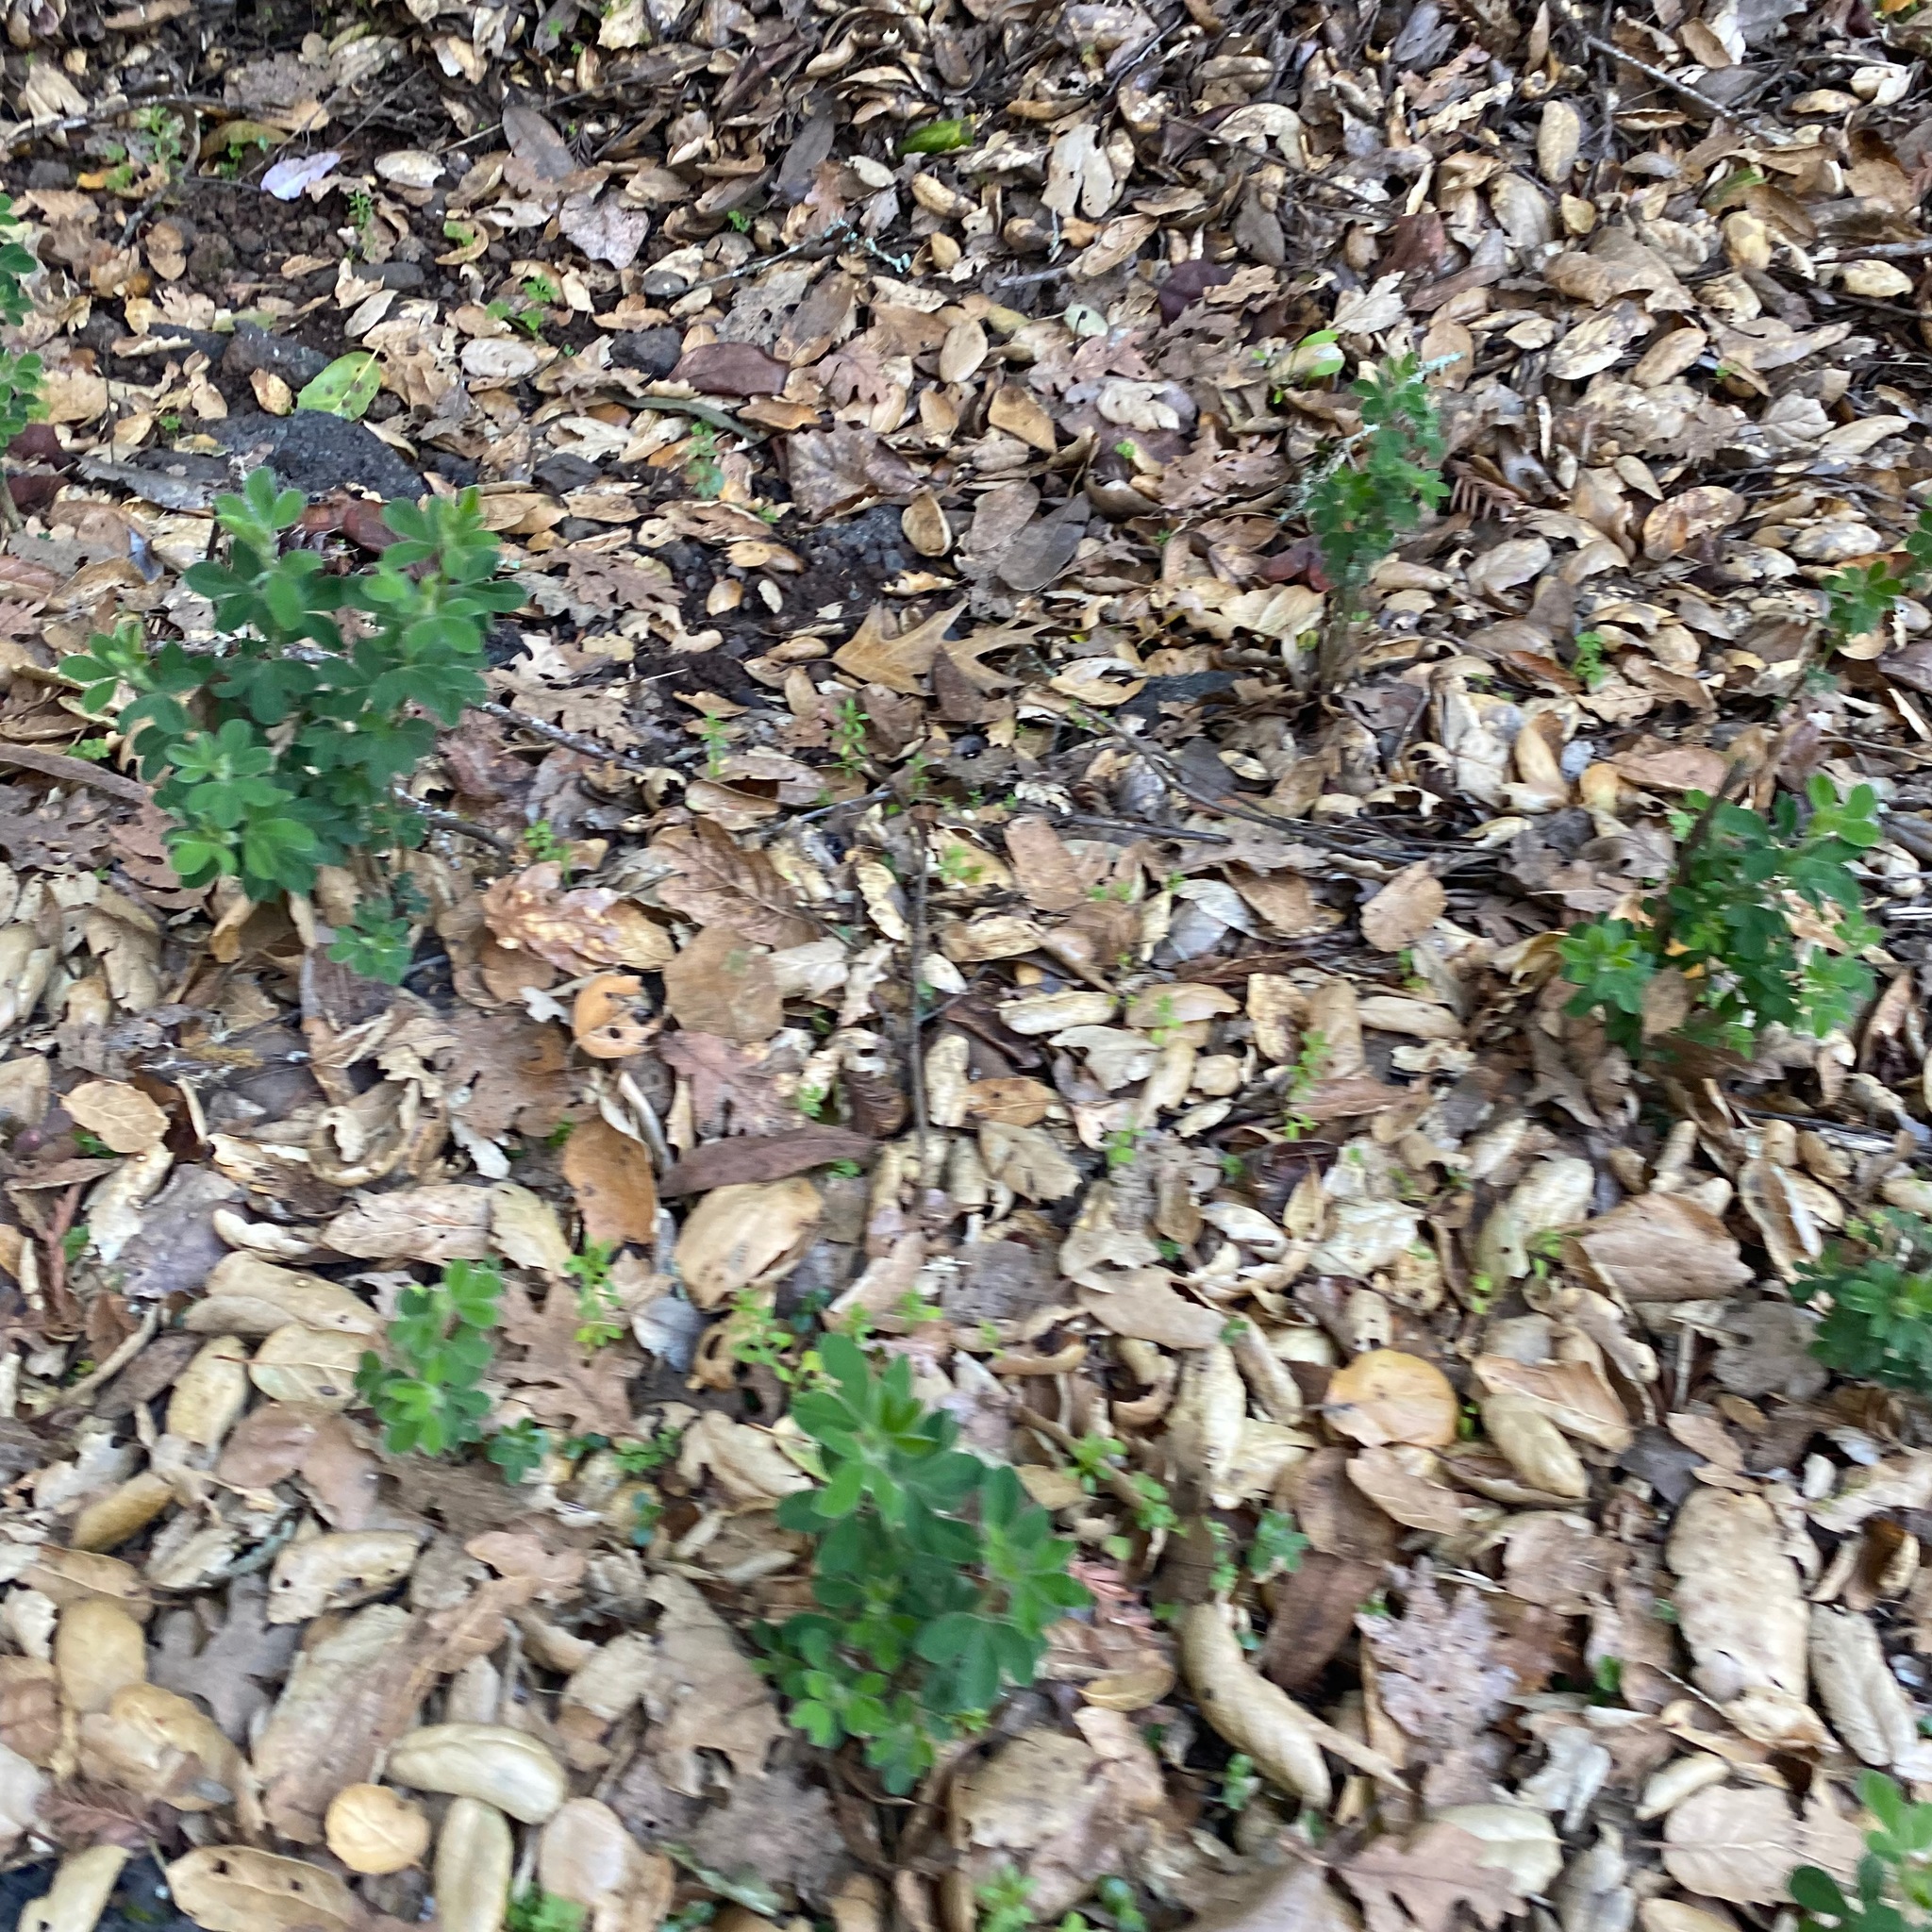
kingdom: Plantae
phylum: Tracheophyta
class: Magnoliopsida
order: Fabales
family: Fabaceae
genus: Genista
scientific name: Genista monspessulana
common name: Montpellier broom
